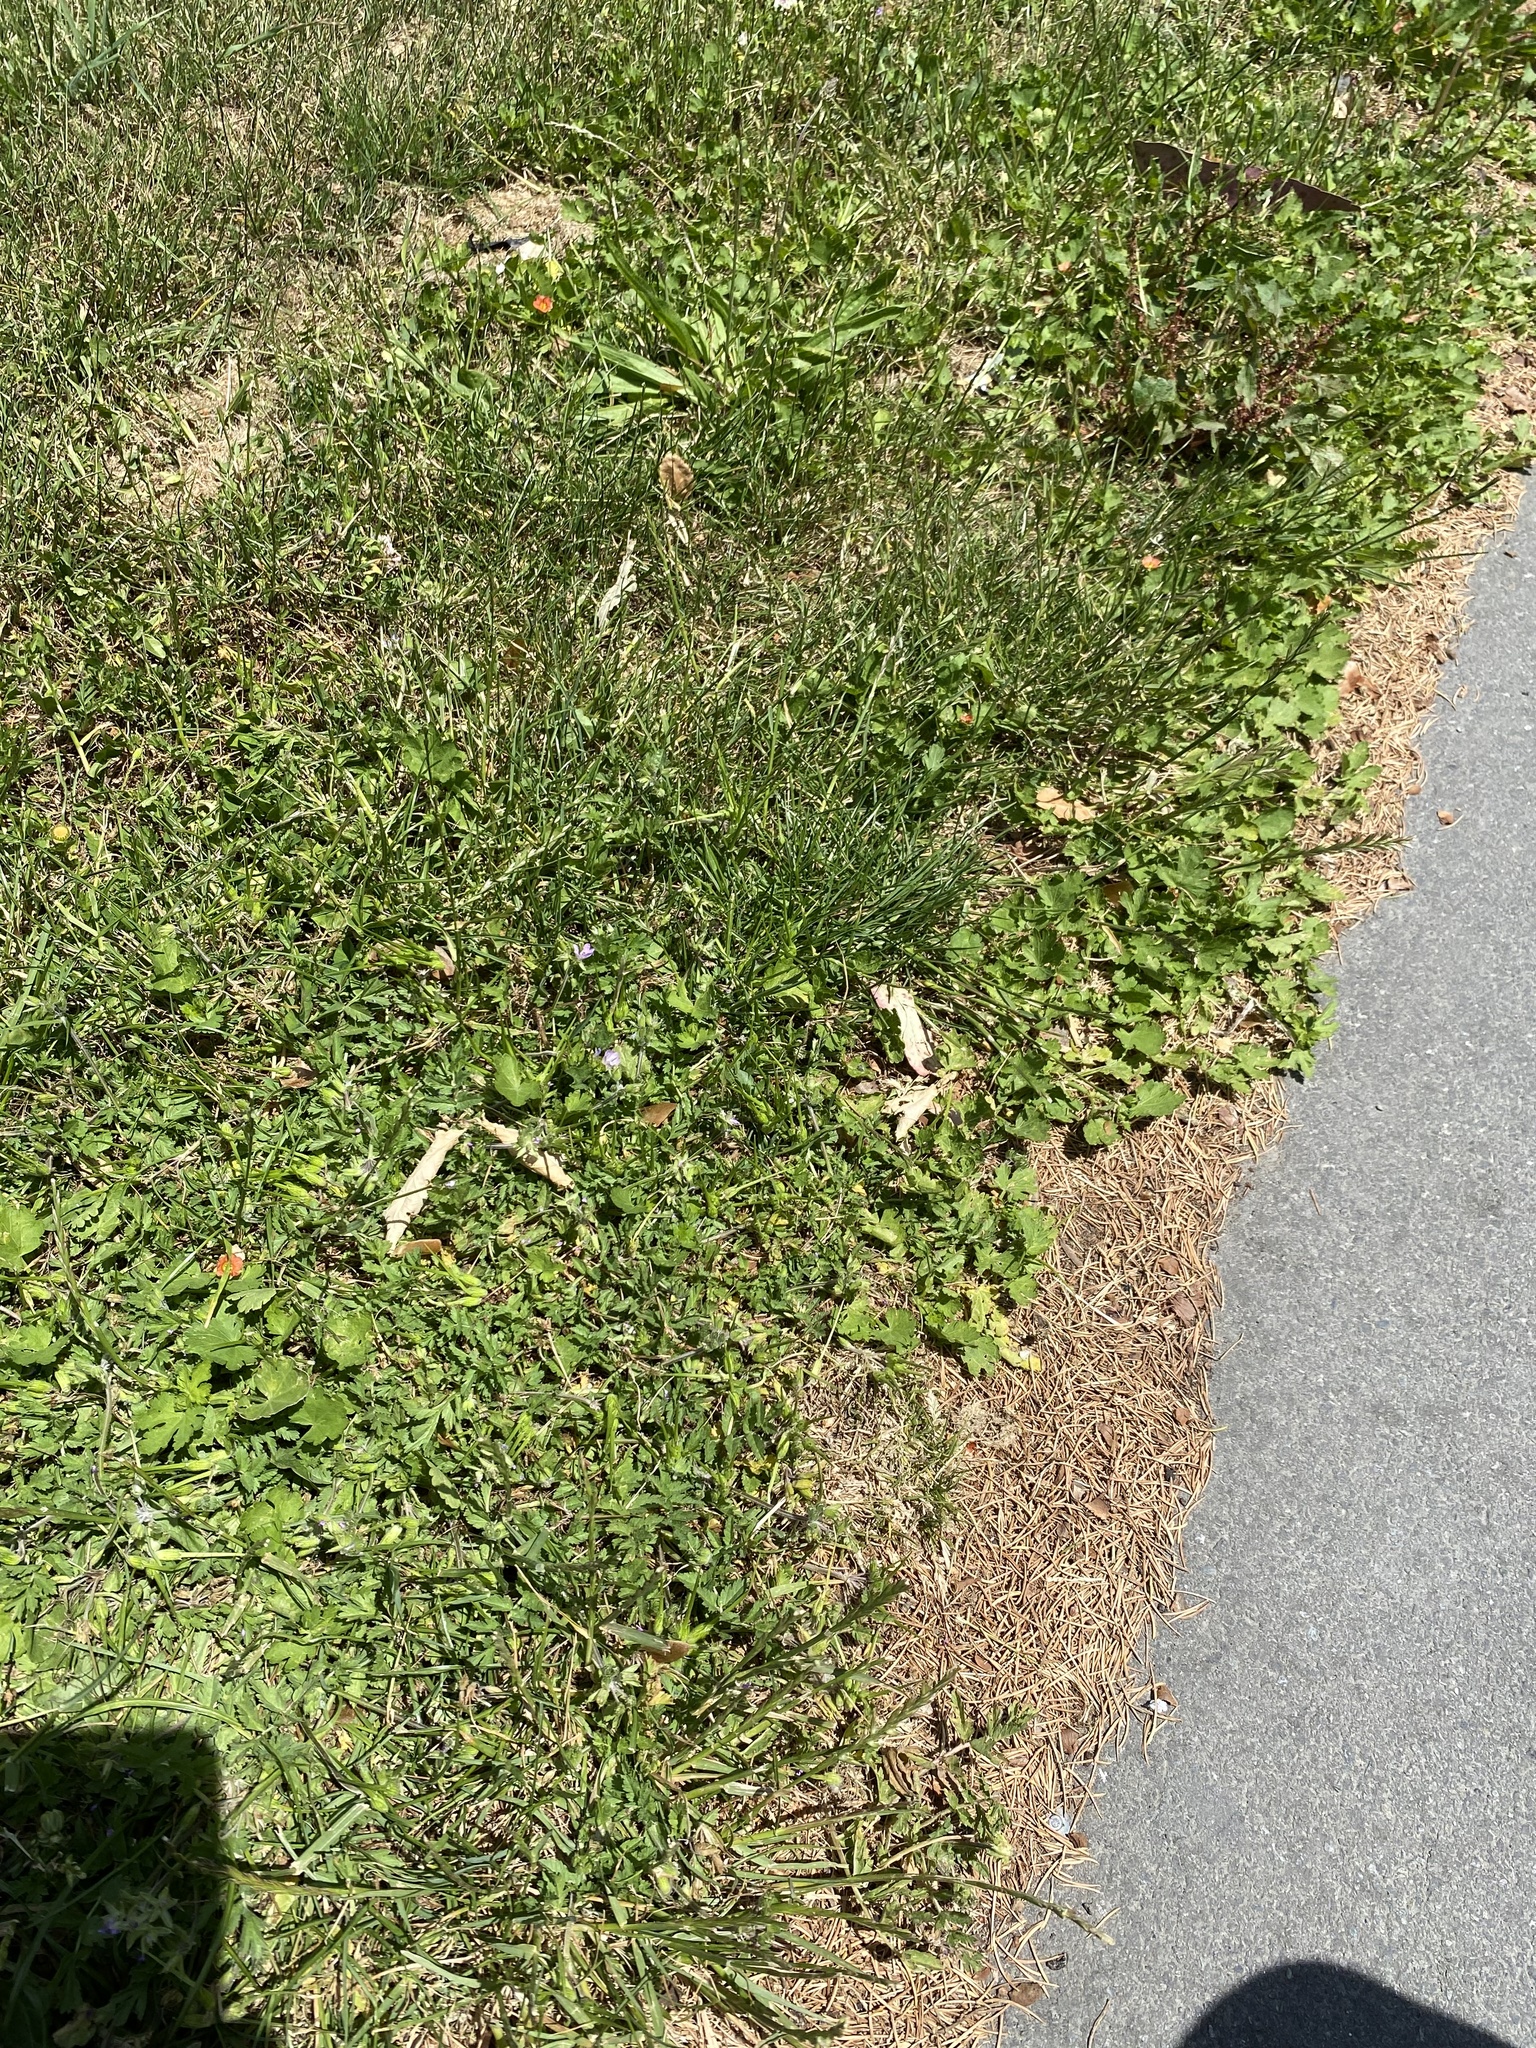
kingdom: Plantae
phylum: Tracheophyta
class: Magnoliopsida
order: Malvales
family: Malvaceae
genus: Modiola
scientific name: Modiola caroliniana
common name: Carolina bristlemallow
